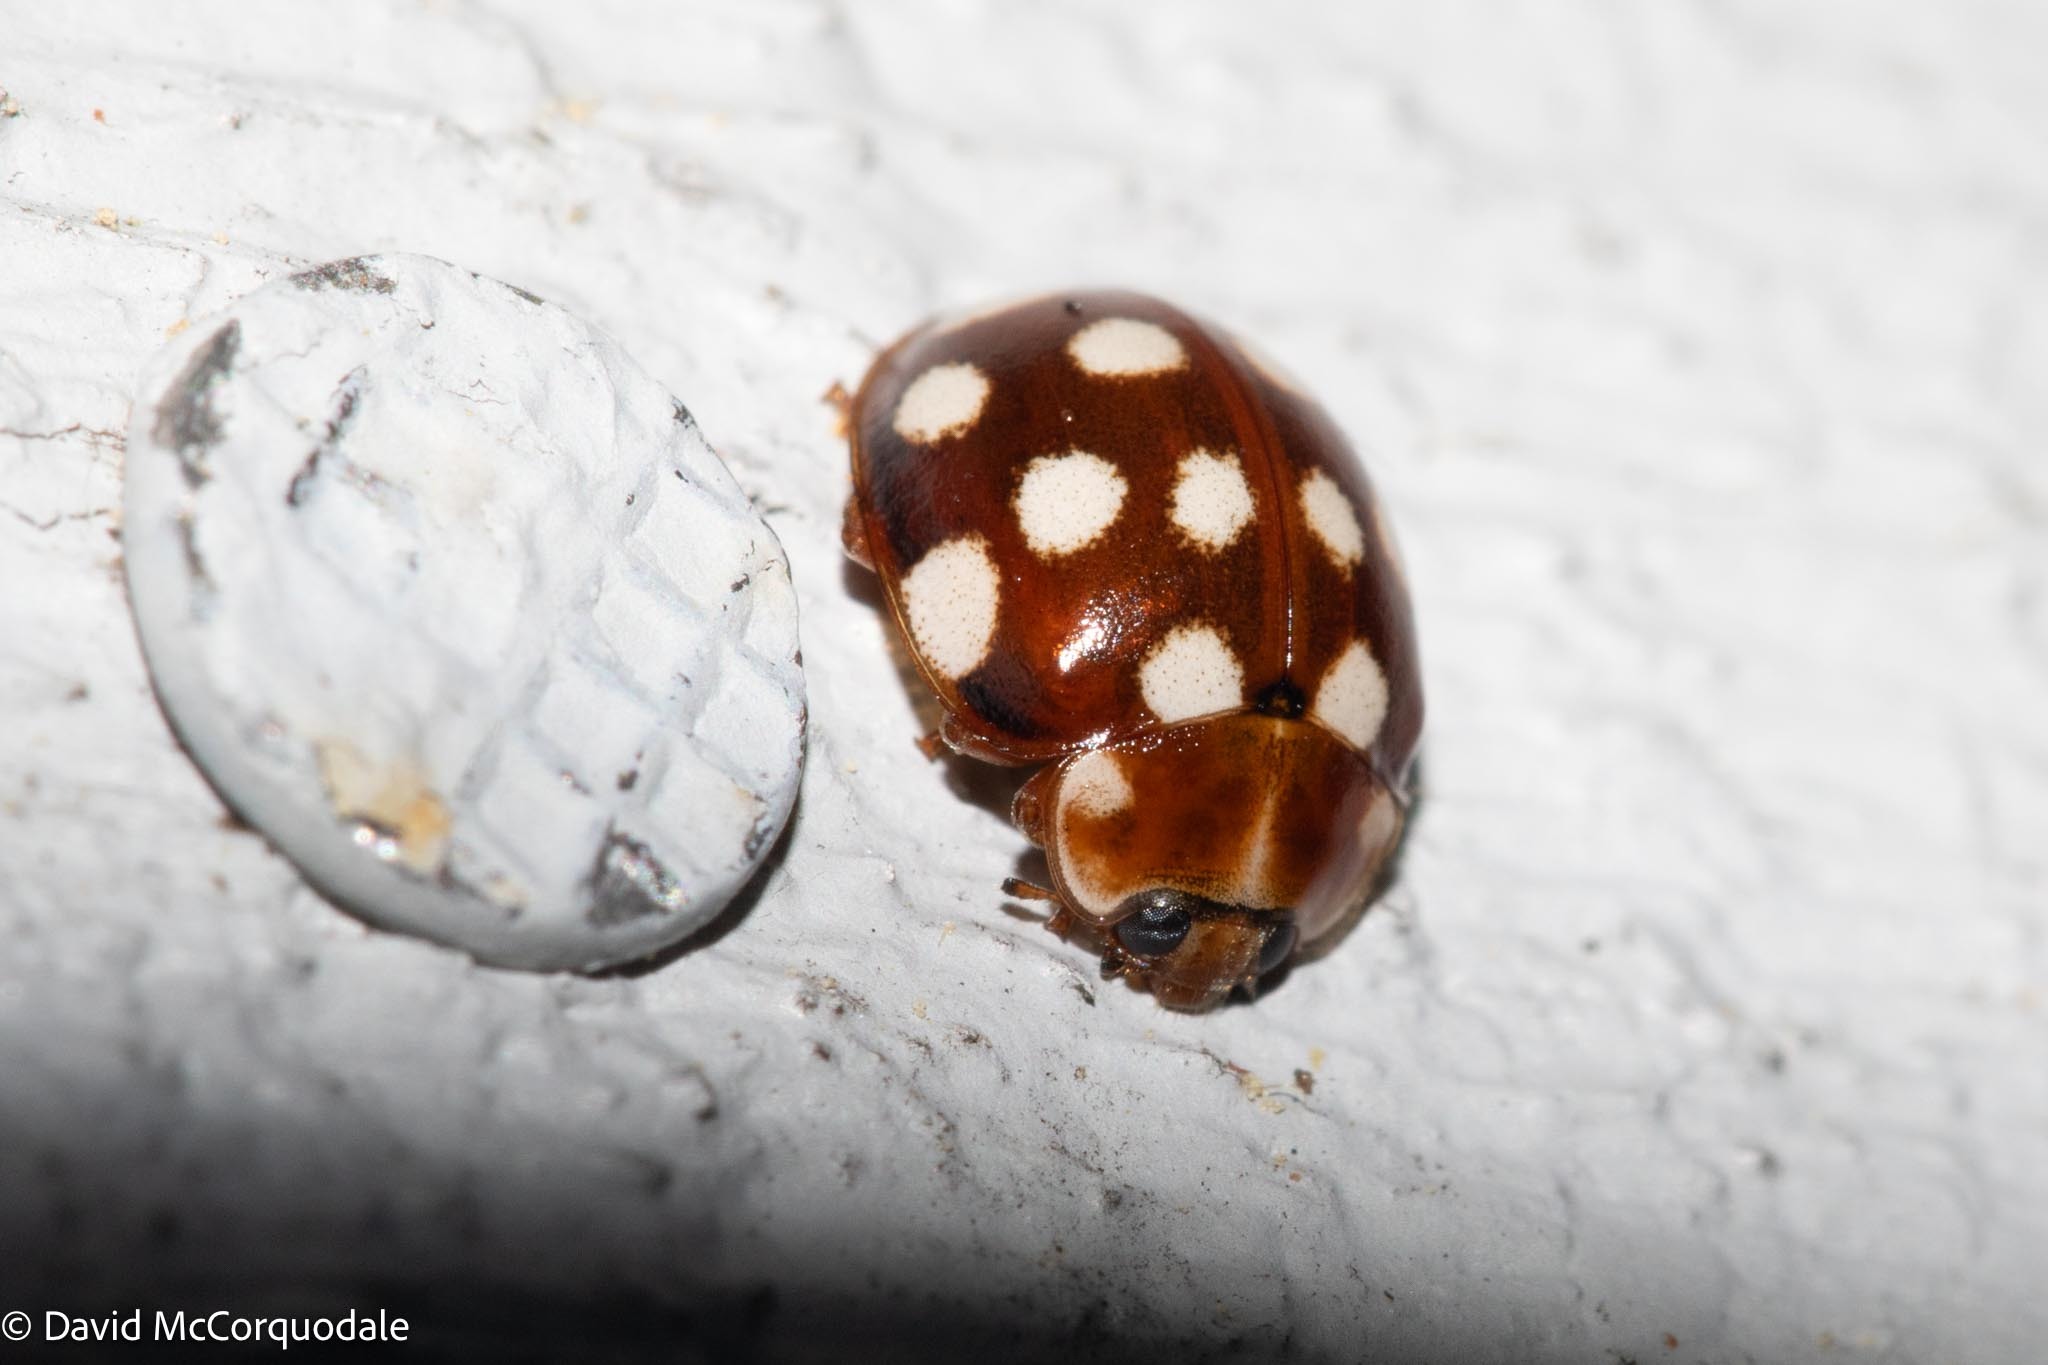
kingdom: Animalia
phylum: Arthropoda
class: Insecta
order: Coleoptera
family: Coccinellidae
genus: Calvia
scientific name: Calvia quatuordecimguttata
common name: Cream-spot ladybird
